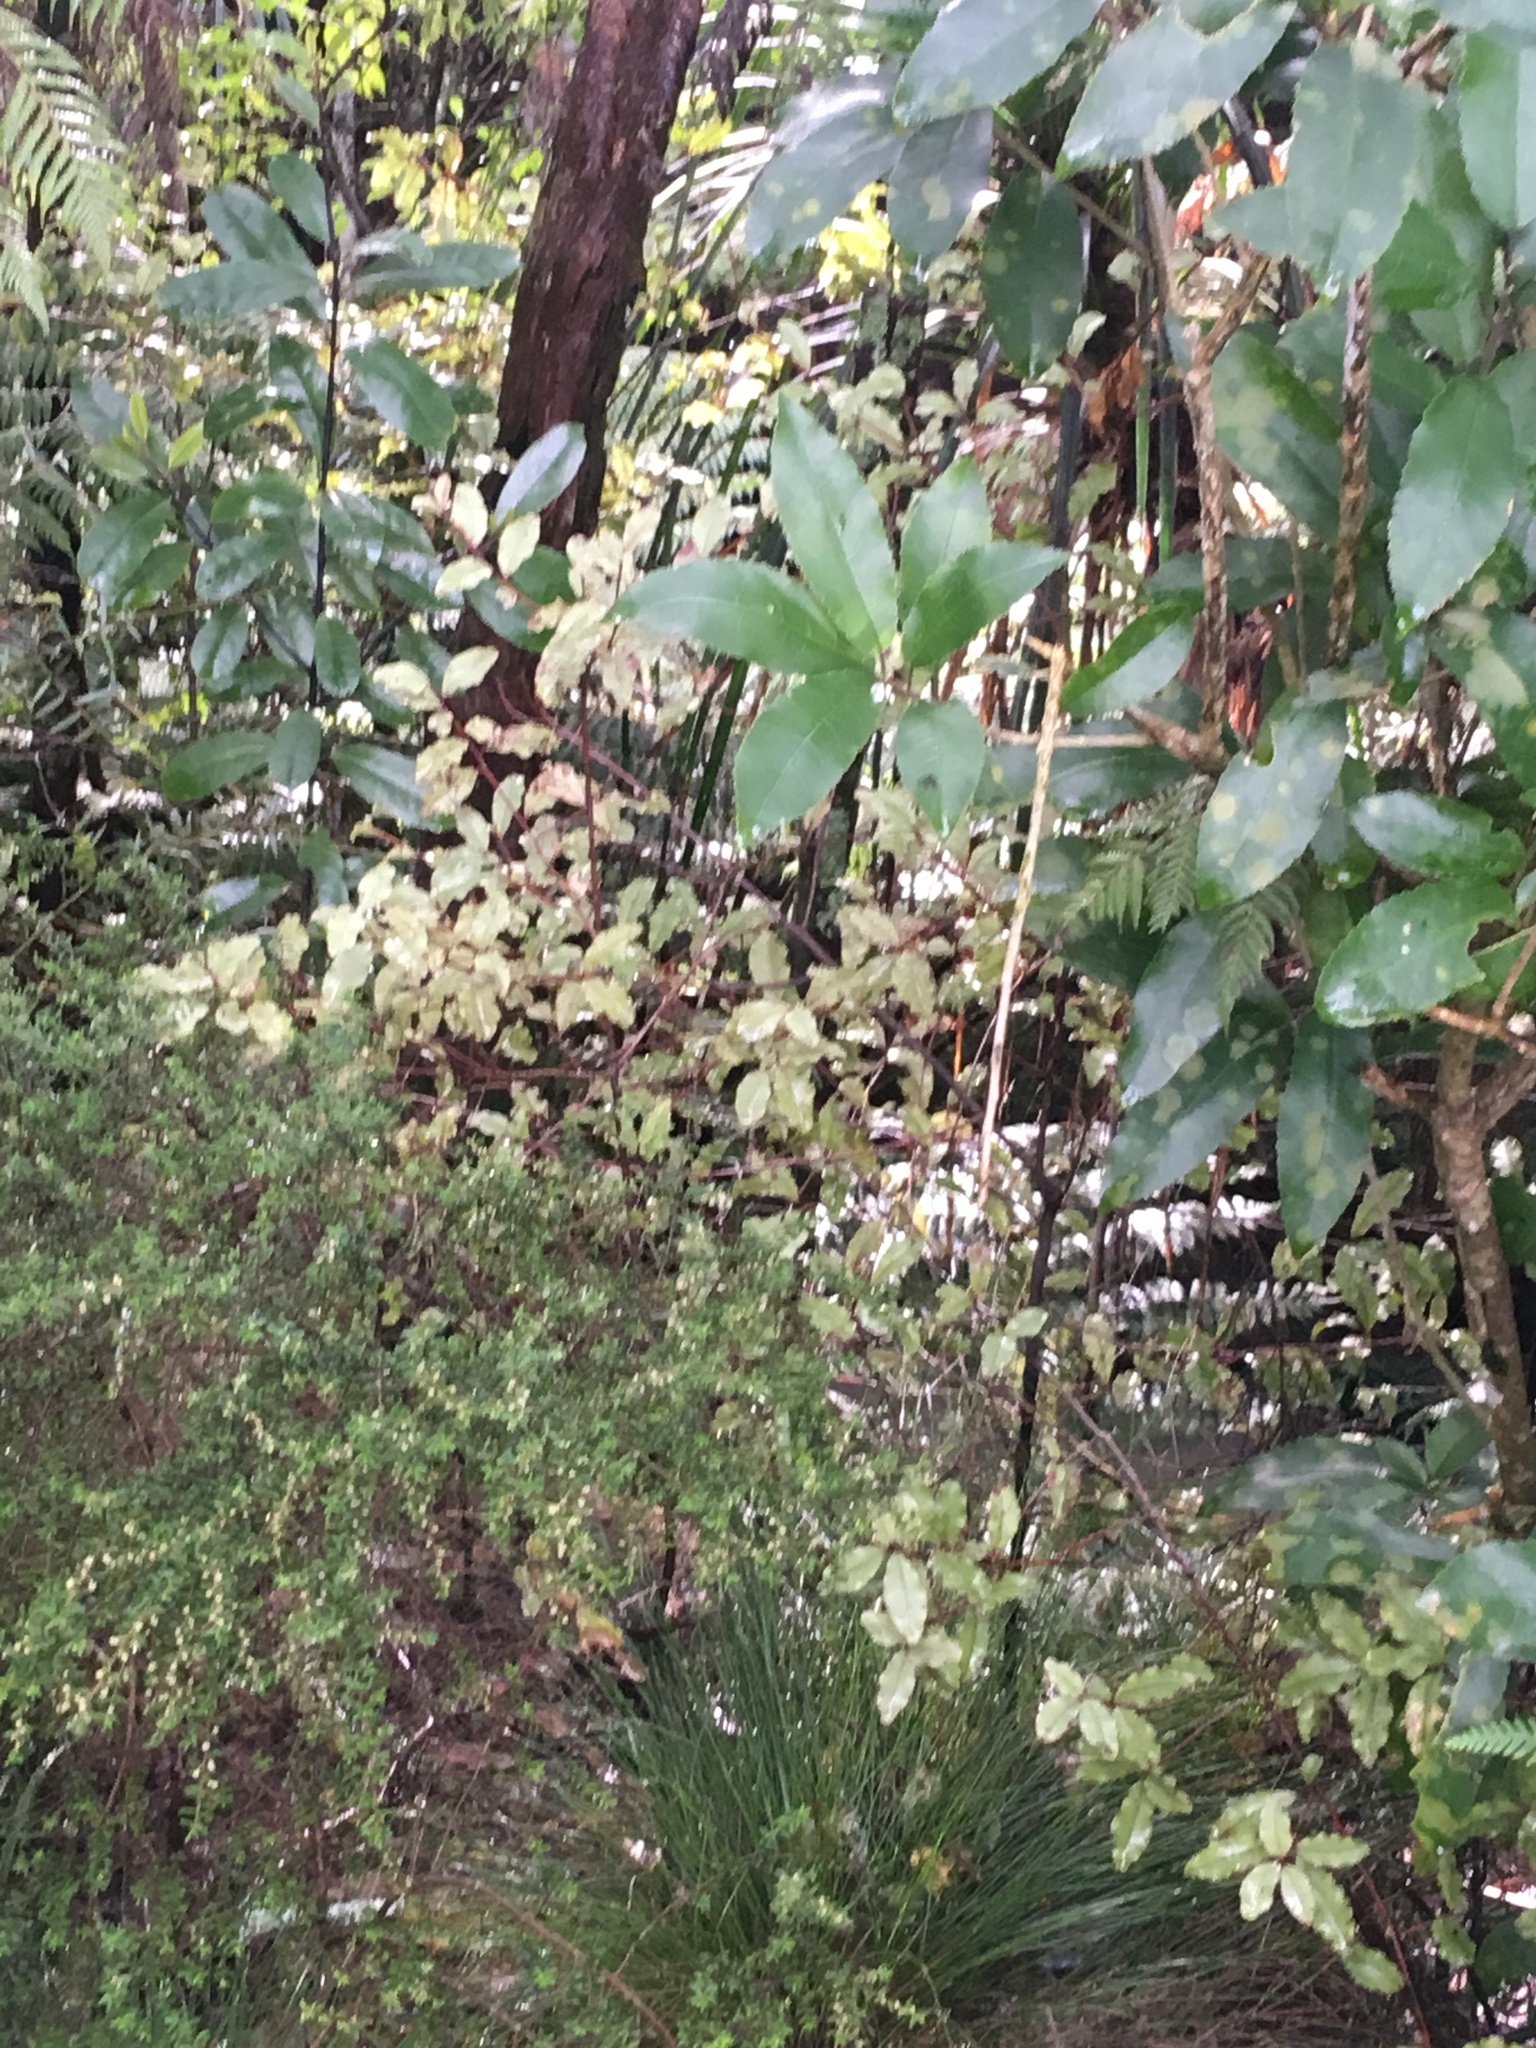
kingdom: Plantae
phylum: Tracheophyta
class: Magnoliopsida
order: Malpighiales
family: Violaceae
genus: Melicytus
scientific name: Melicytus ramiflorus
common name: Mahoe
